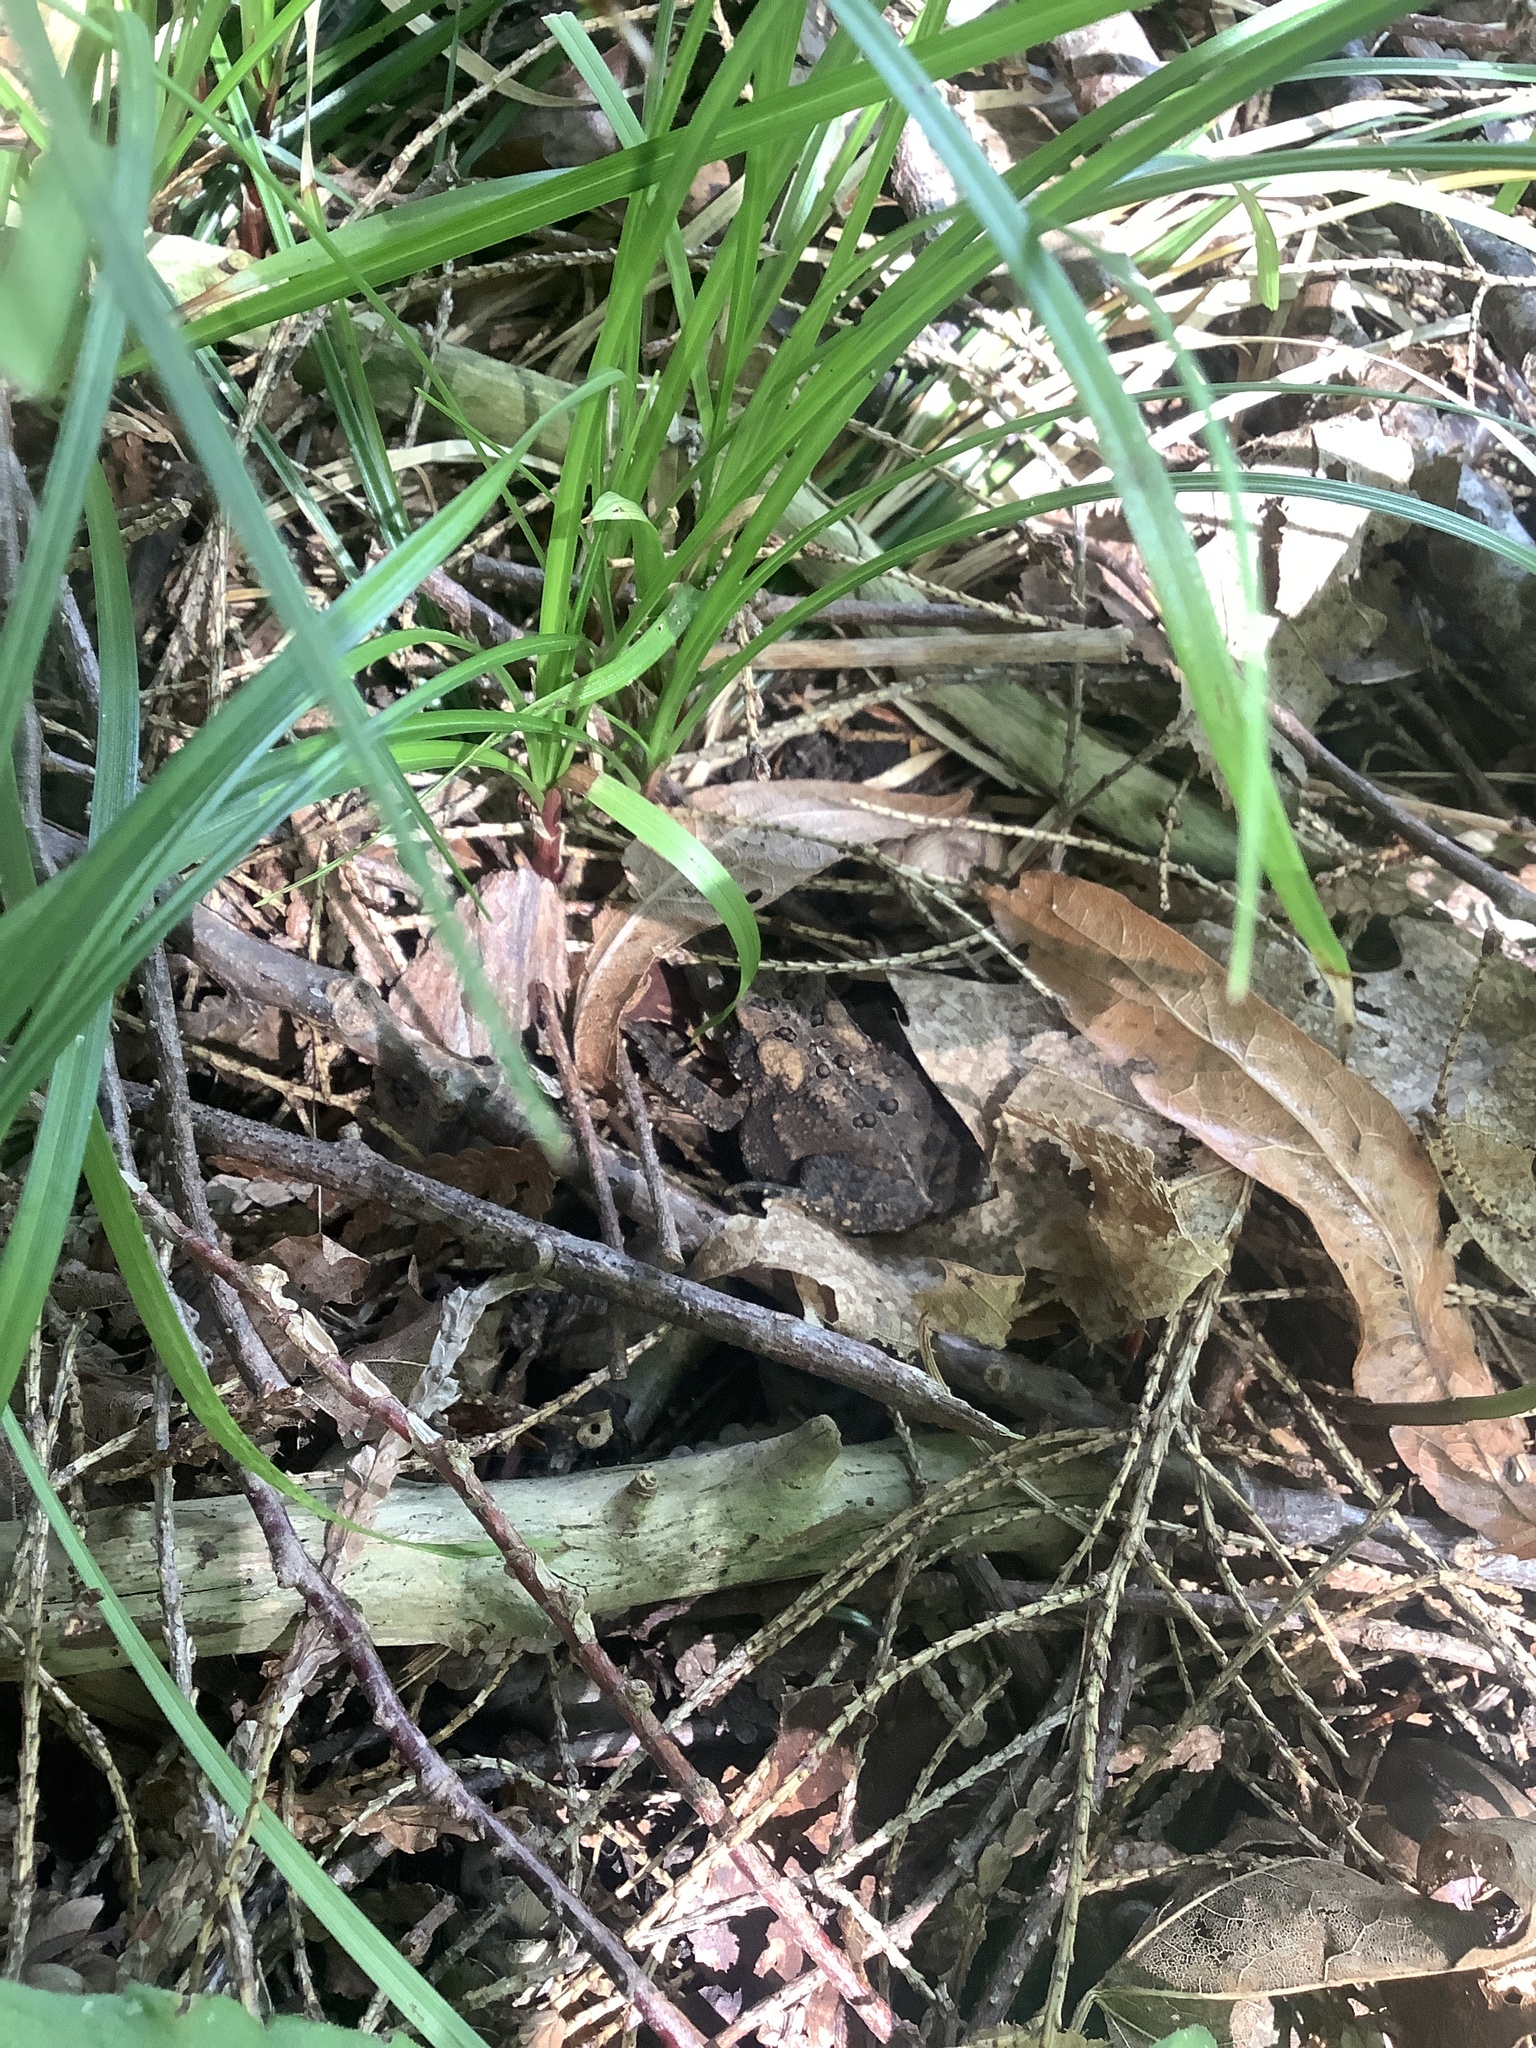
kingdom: Animalia
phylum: Chordata
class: Amphibia
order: Anura
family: Bufonidae
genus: Anaxyrus
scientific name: Anaxyrus americanus
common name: American toad
